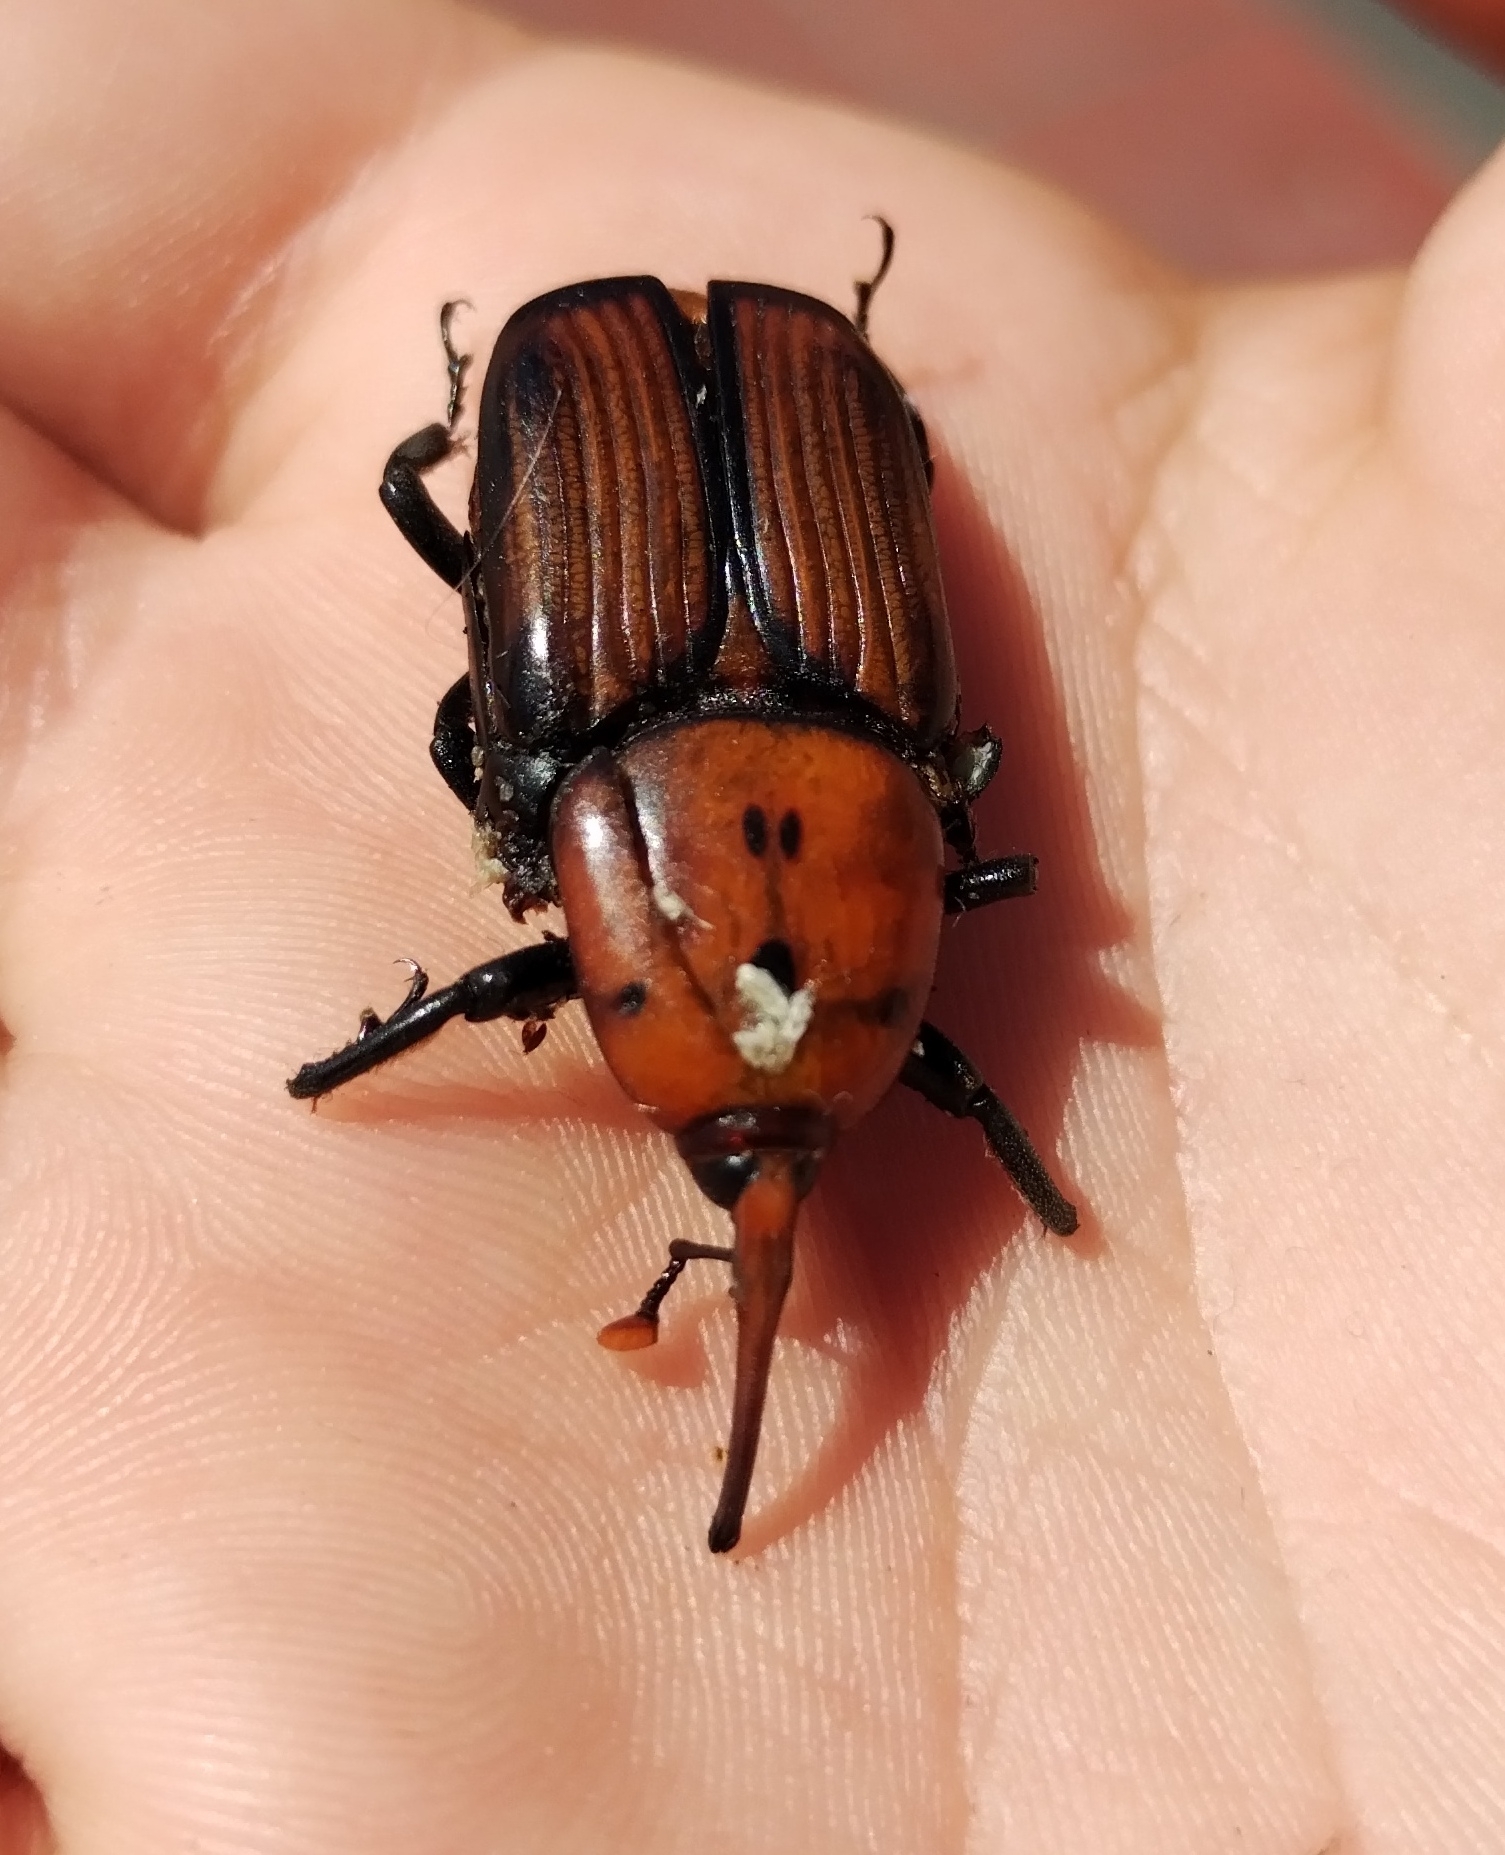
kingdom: Animalia
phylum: Arthropoda
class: Insecta
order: Coleoptera
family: Dryophthoridae
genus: Rhynchophorus
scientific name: Rhynchophorus ferrugineus
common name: Red palm weevil
